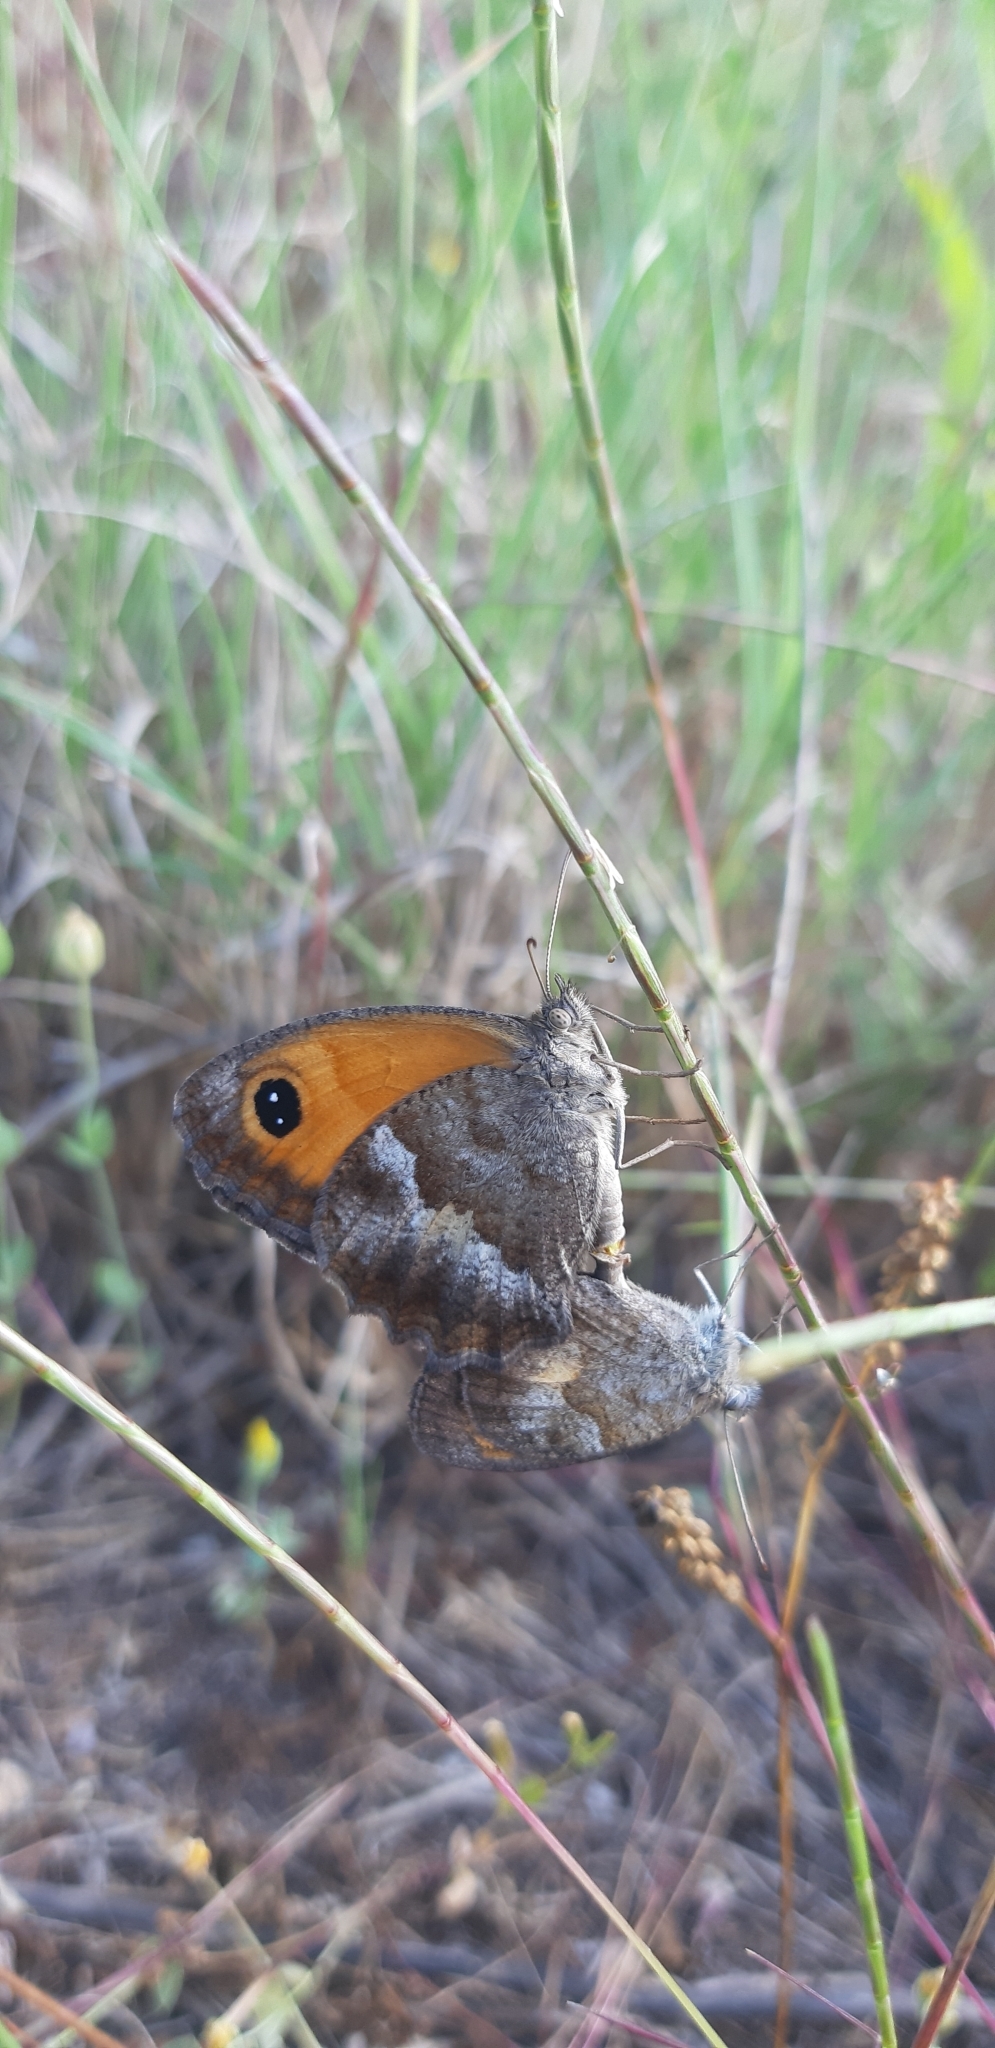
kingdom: Animalia
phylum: Arthropoda
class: Insecta
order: Lepidoptera
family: Nymphalidae
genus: Pyronia
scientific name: Pyronia cecilia
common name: Southern gatekeeper
